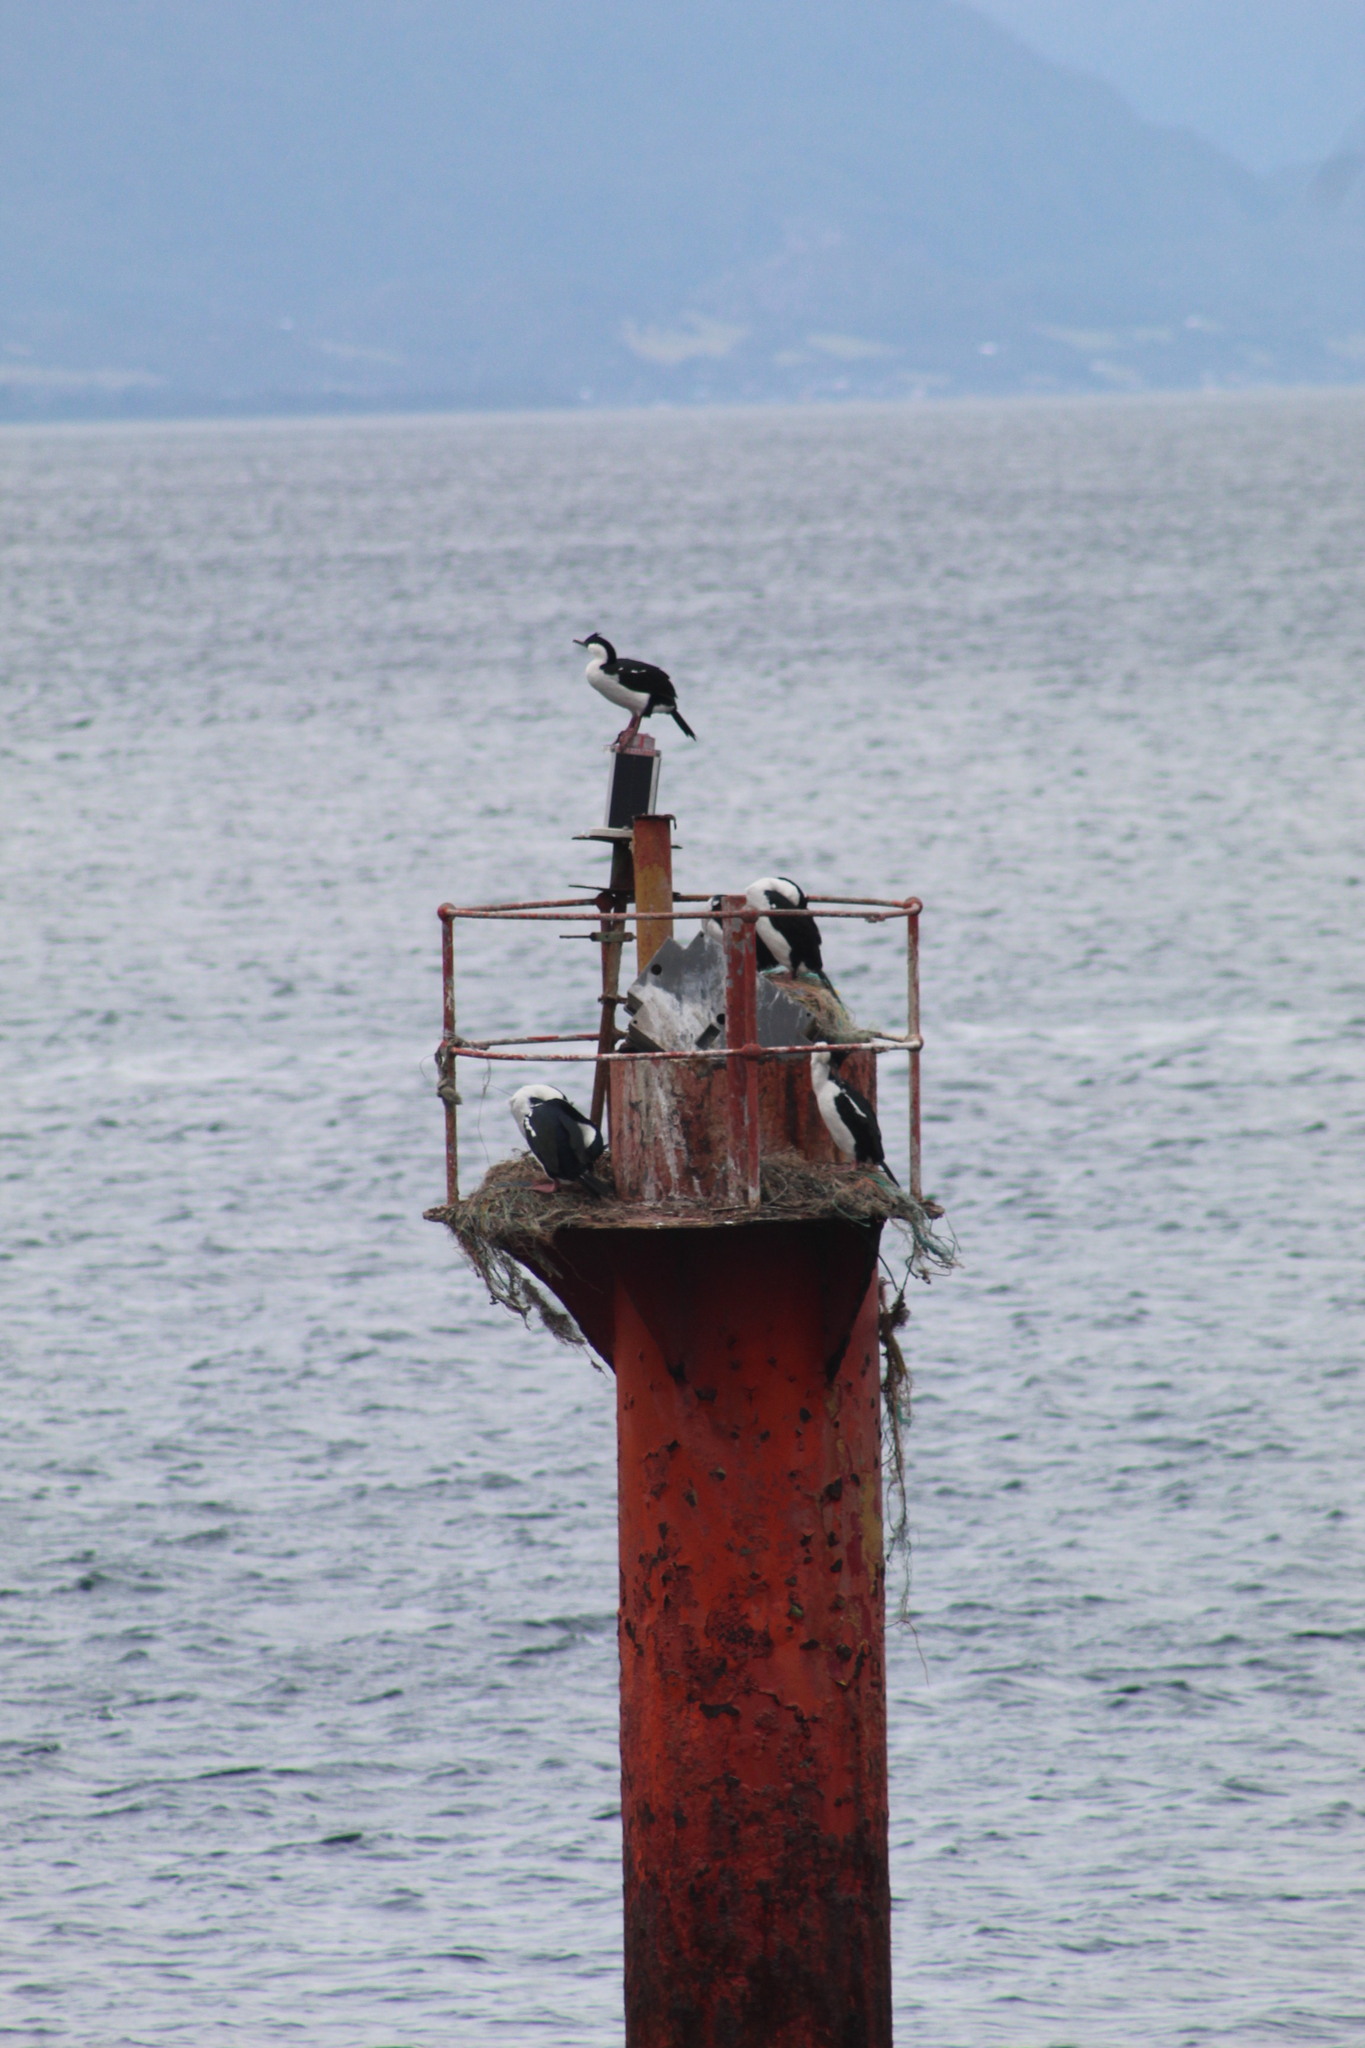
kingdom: Animalia
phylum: Chordata
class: Aves
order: Suliformes
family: Phalacrocoracidae
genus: Leucocarbo
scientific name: Leucocarbo atriceps
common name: Imperial shag
